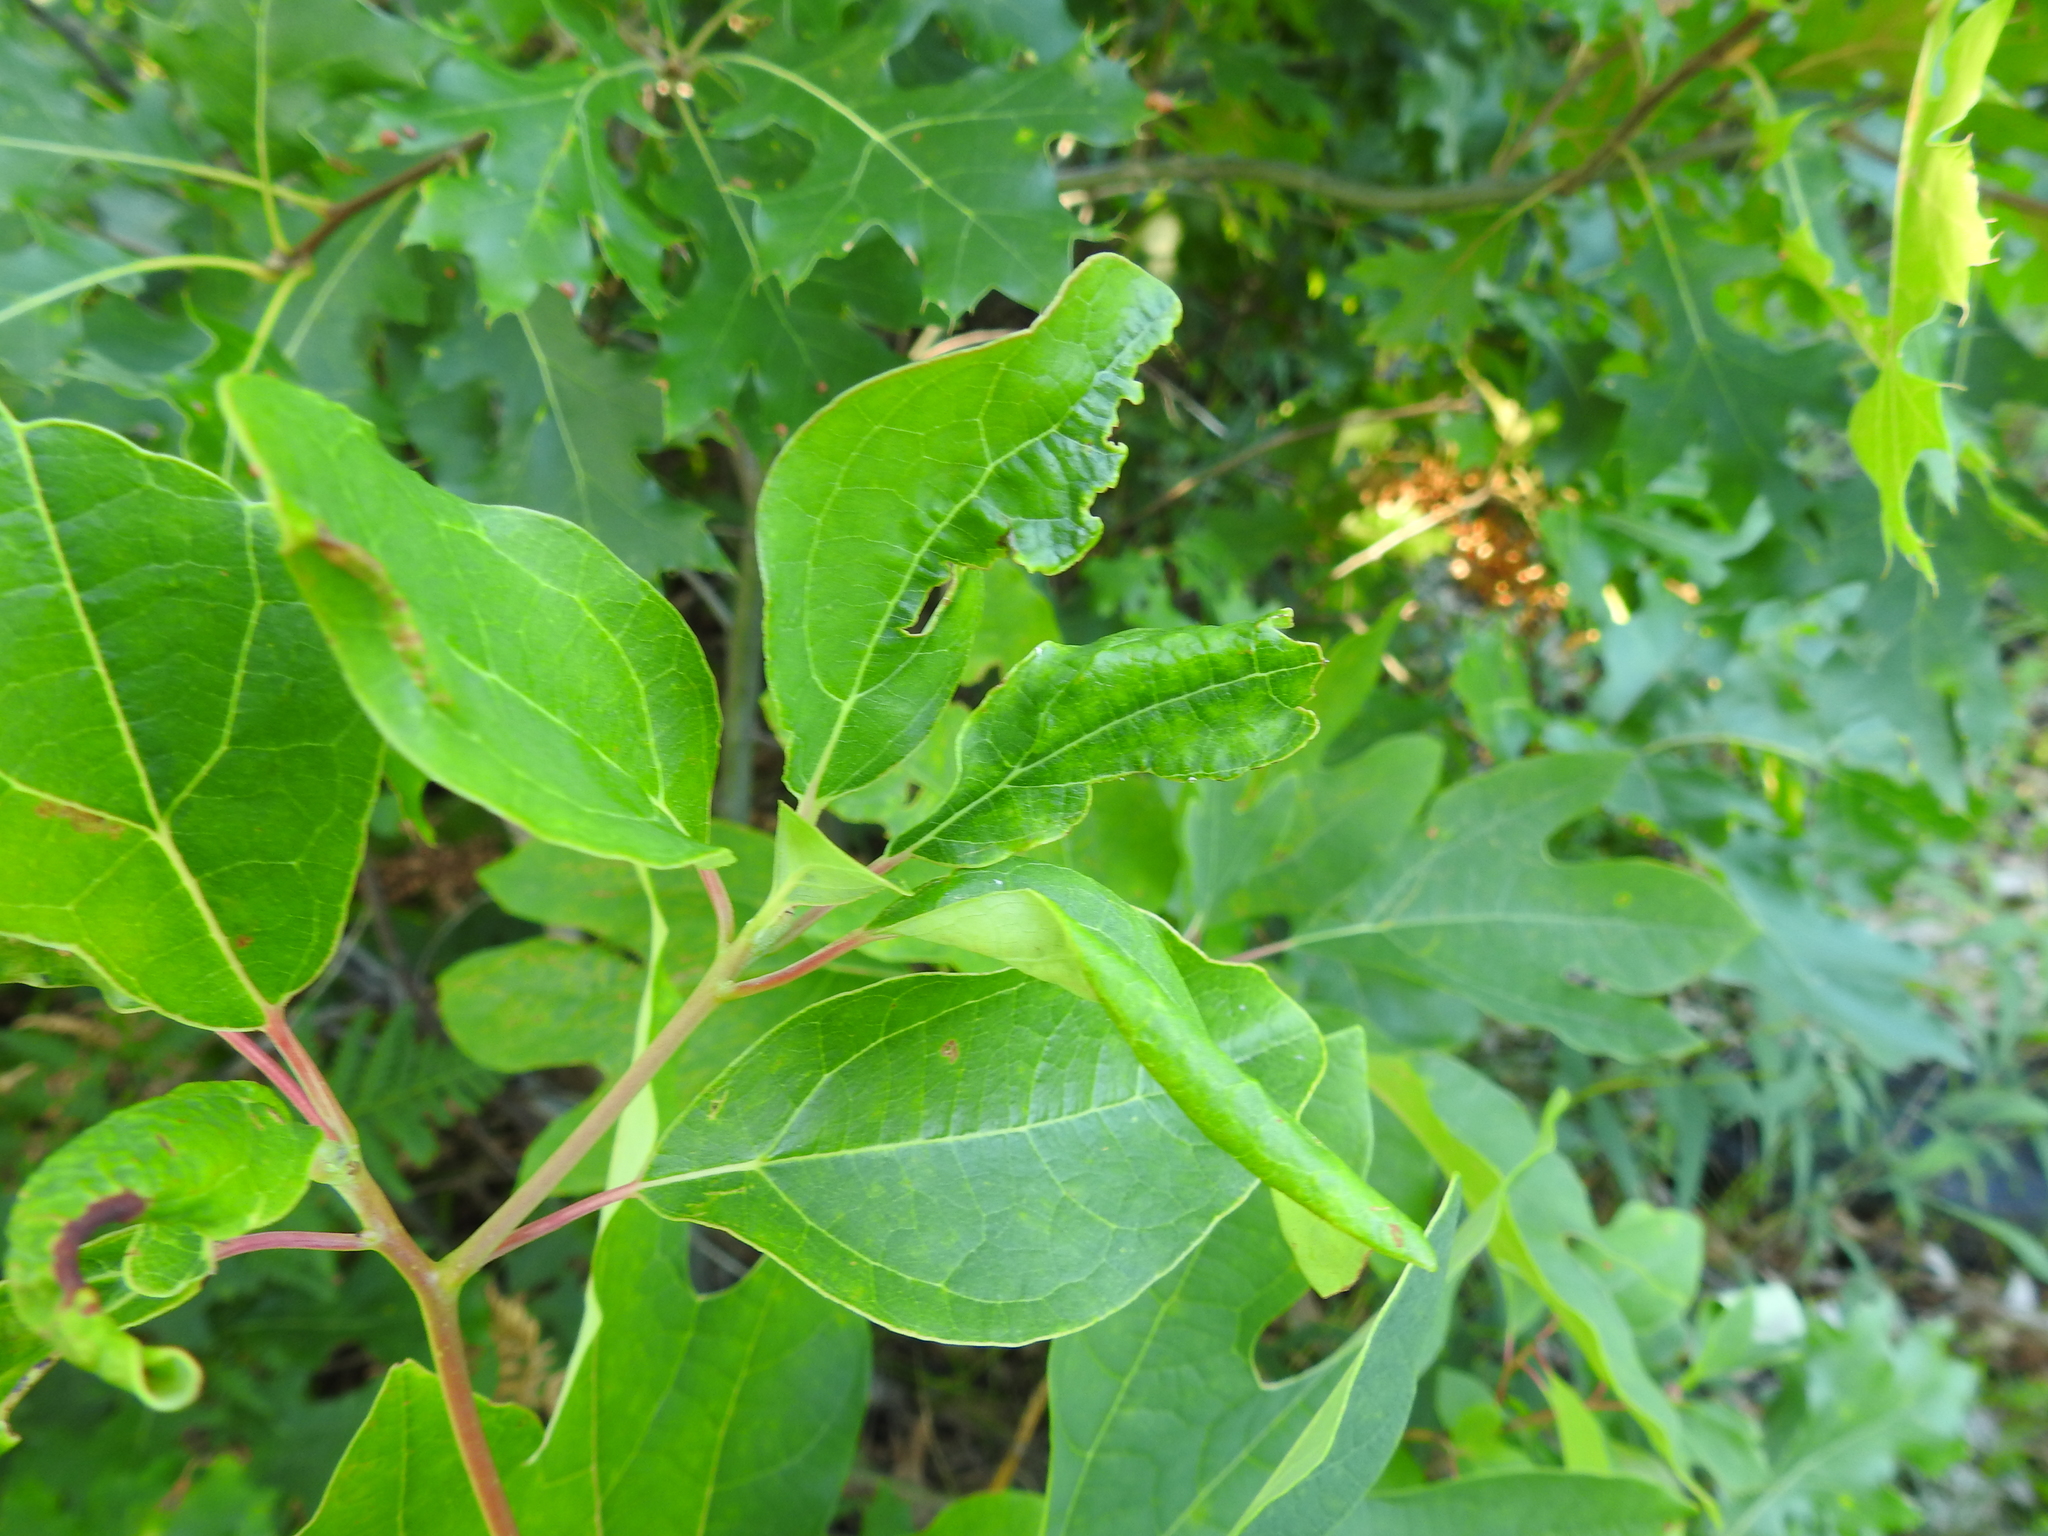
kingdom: Animalia
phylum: Arthropoda
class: Insecta
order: Diptera
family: Cecidomyiidae
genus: Dasineura
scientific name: Dasineura sassafras
